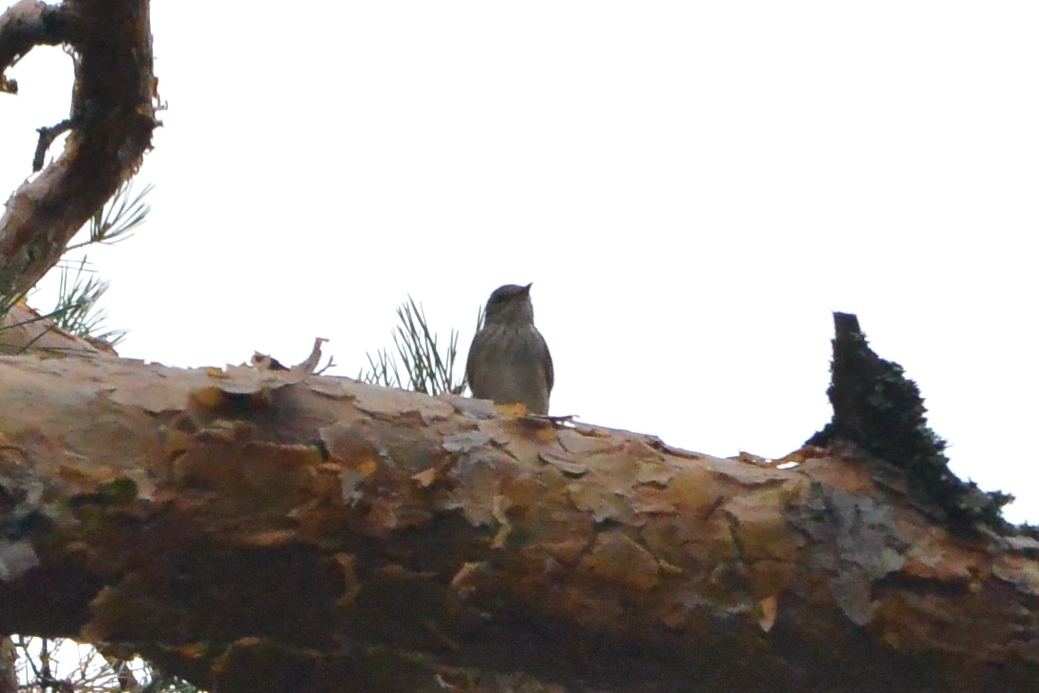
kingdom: Animalia
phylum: Chordata
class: Aves
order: Passeriformes
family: Muscicapidae
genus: Muscicapa
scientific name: Muscicapa striata
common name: Spotted flycatcher
